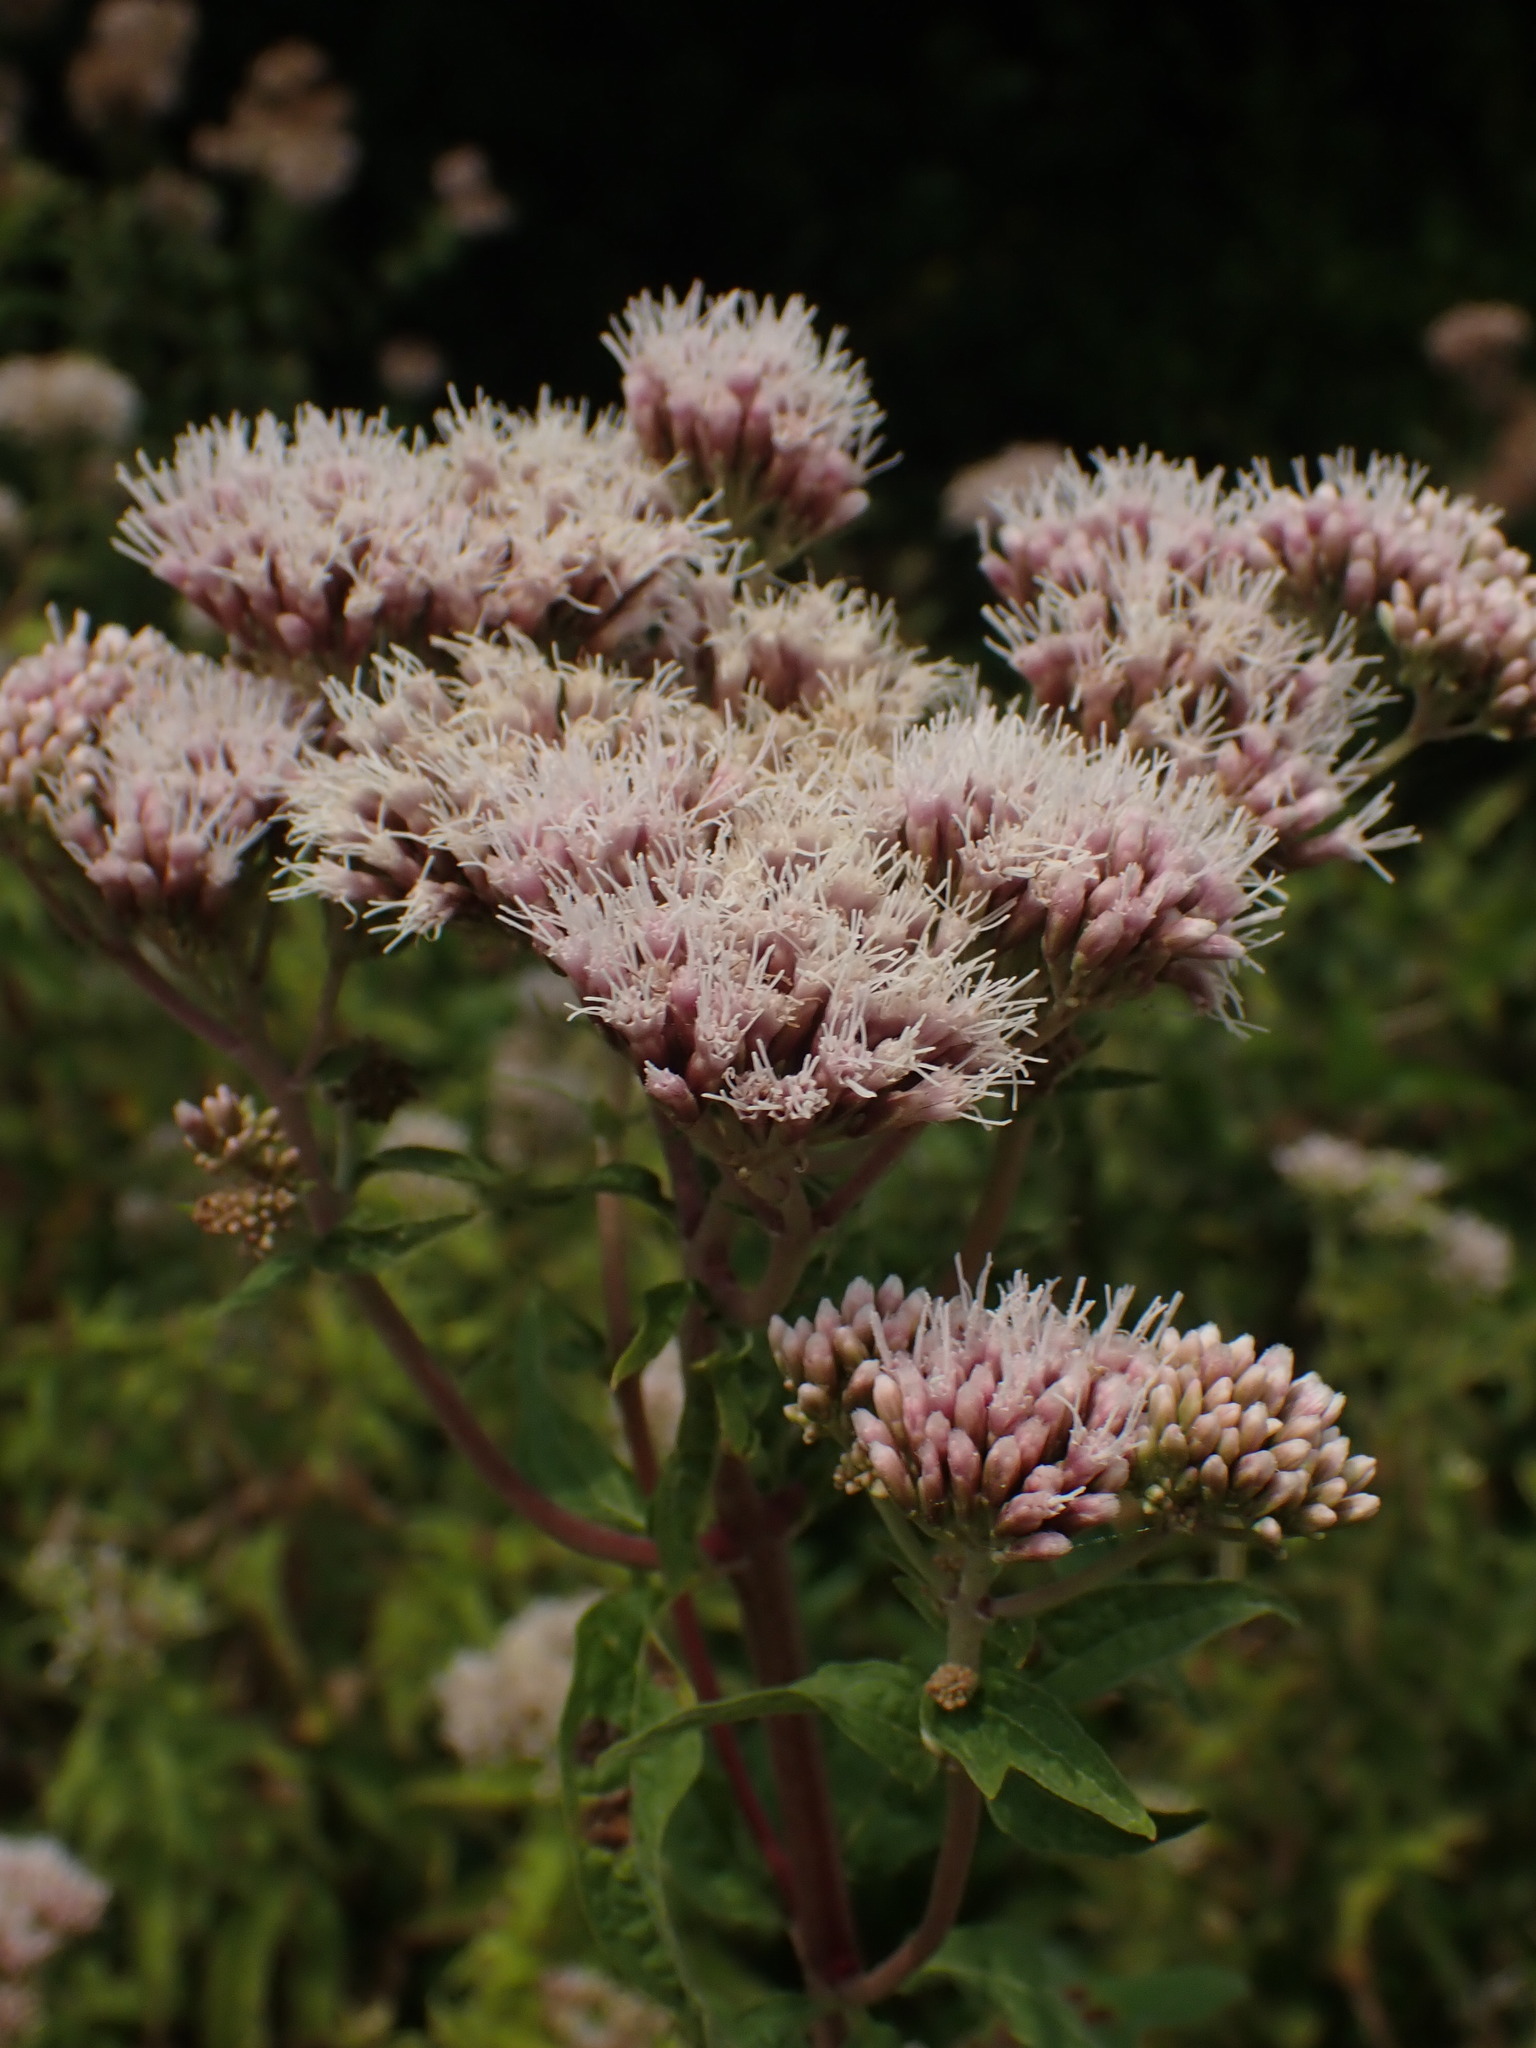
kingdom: Plantae
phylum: Tracheophyta
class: Magnoliopsida
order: Asterales
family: Asteraceae
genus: Eupatorium
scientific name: Eupatorium cannabinum
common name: Hemp-agrimony
